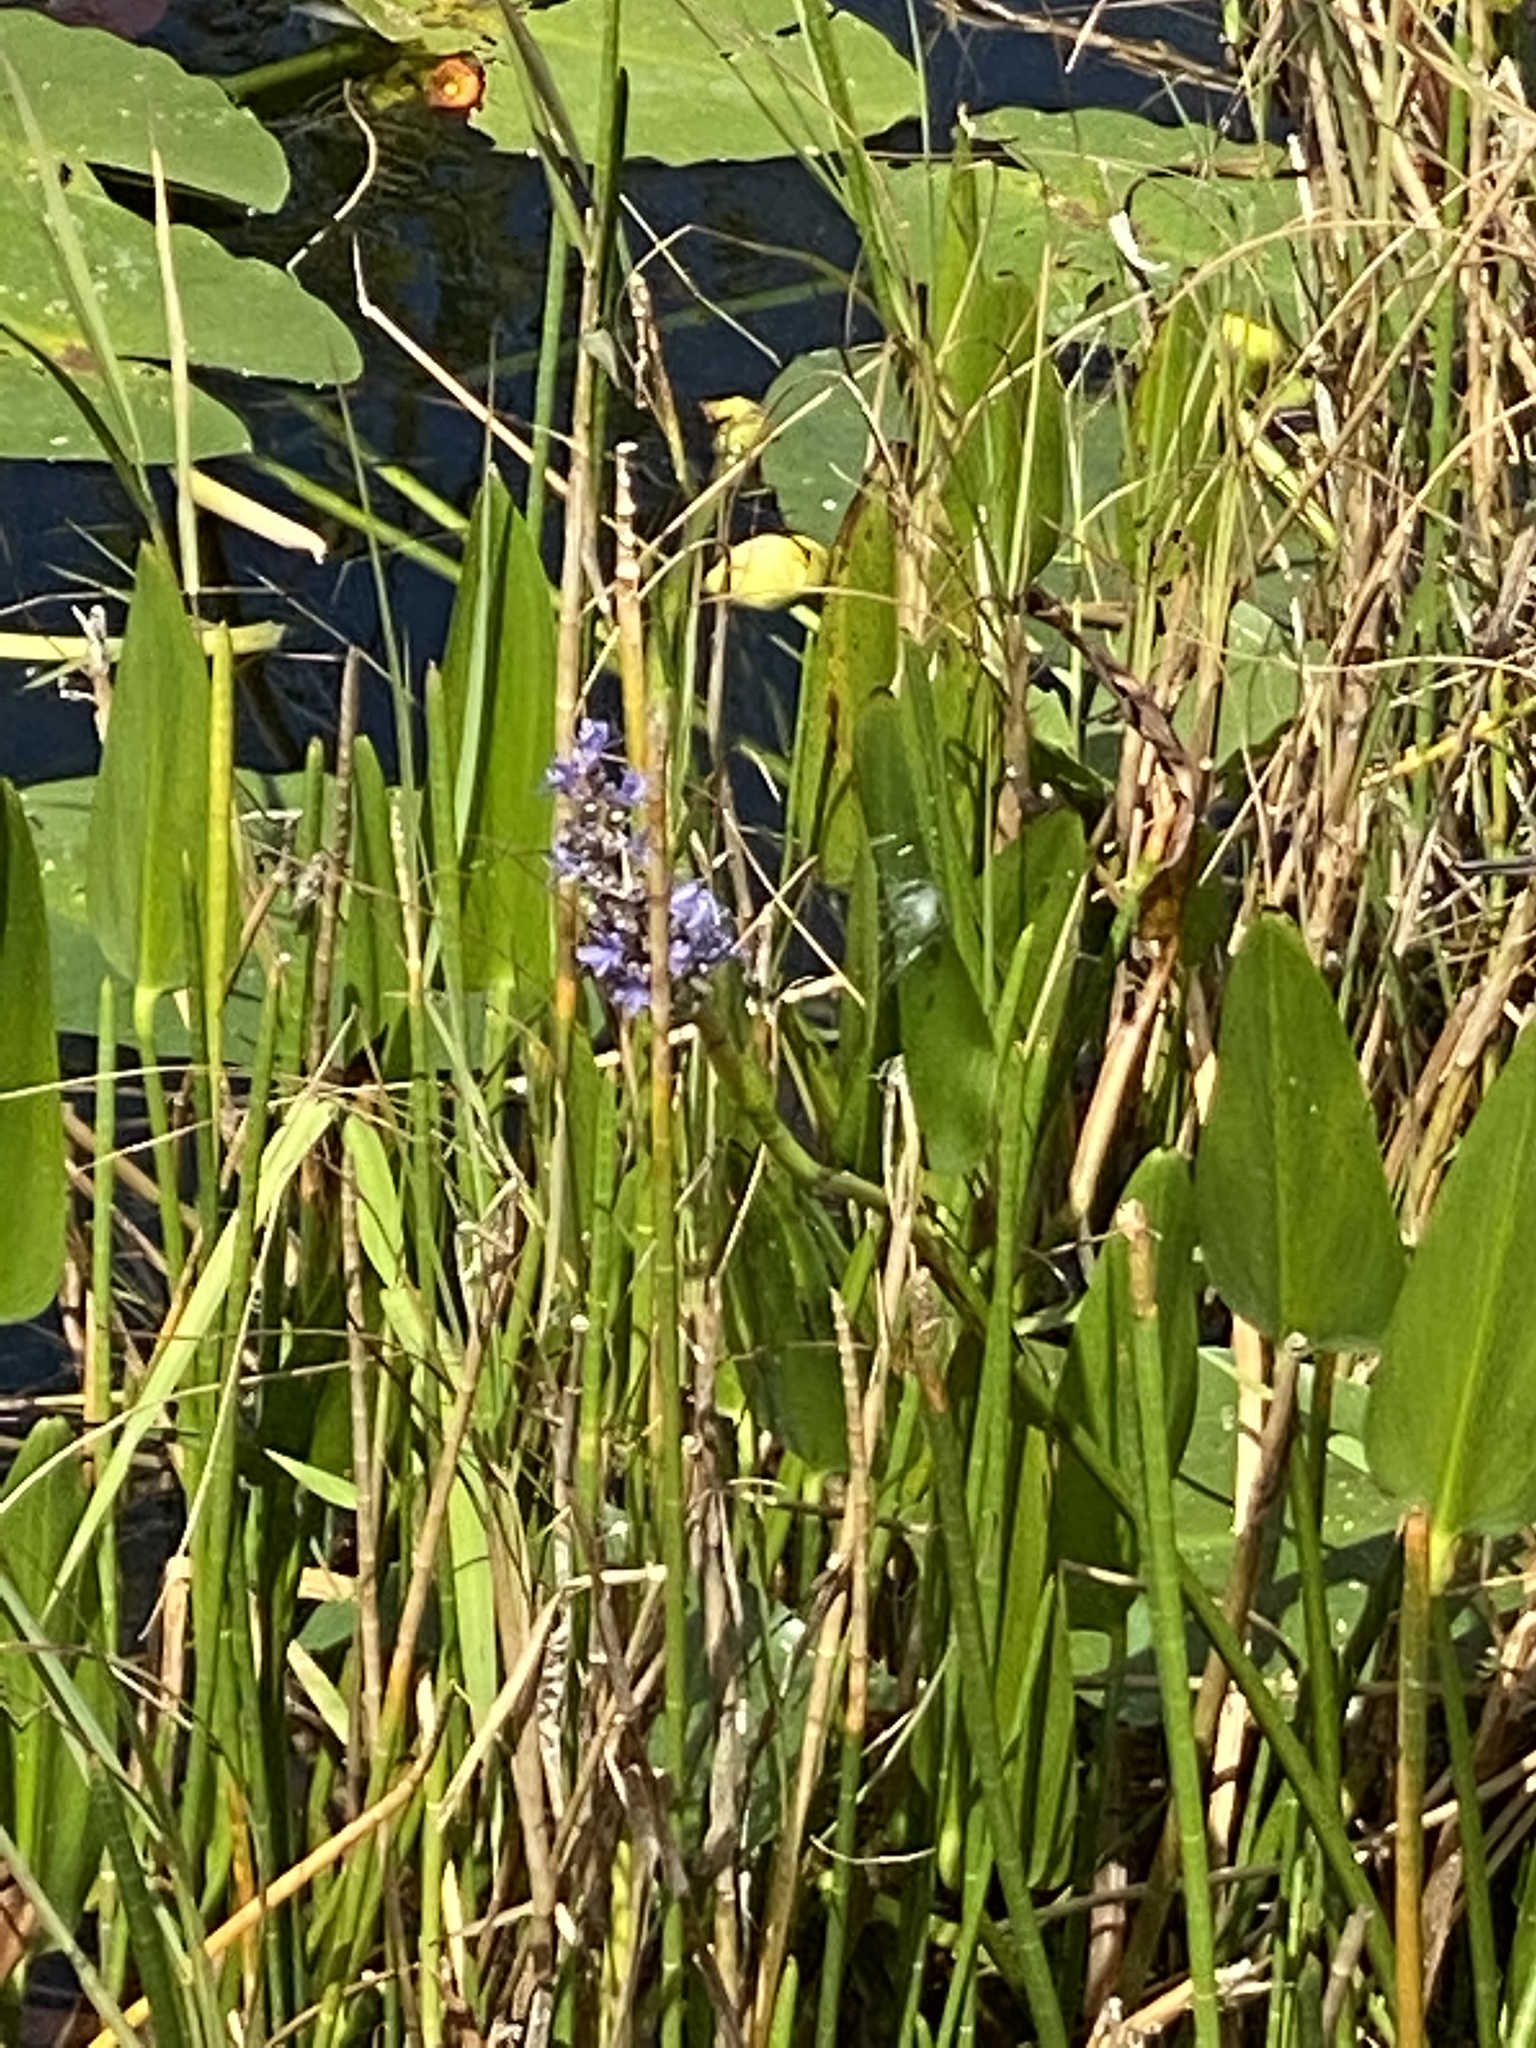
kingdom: Plantae
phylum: Tracheophyta
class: Liliopsida
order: Commelinales
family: Pontederiaceae
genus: Pontederia
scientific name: Pontederia cordata
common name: Pickerelweed
